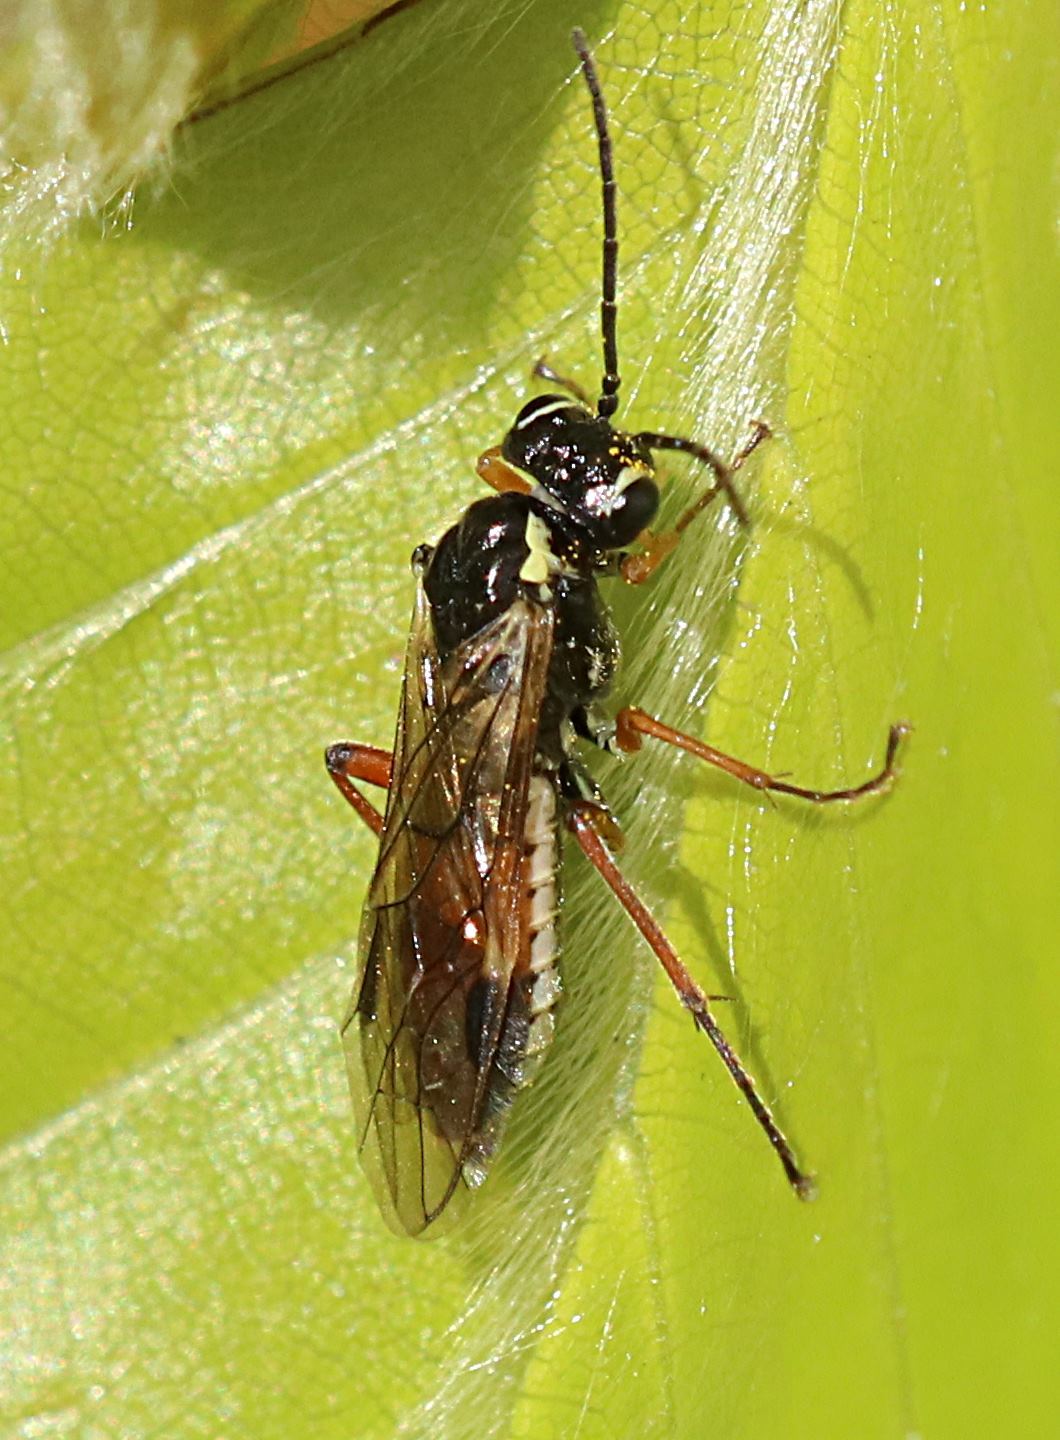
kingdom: Animalia
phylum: Arthropoda
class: Insecta
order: Hymenoptera
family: Tenthredinidae
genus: Aglaostigma
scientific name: Aglaostigma fulvipes
